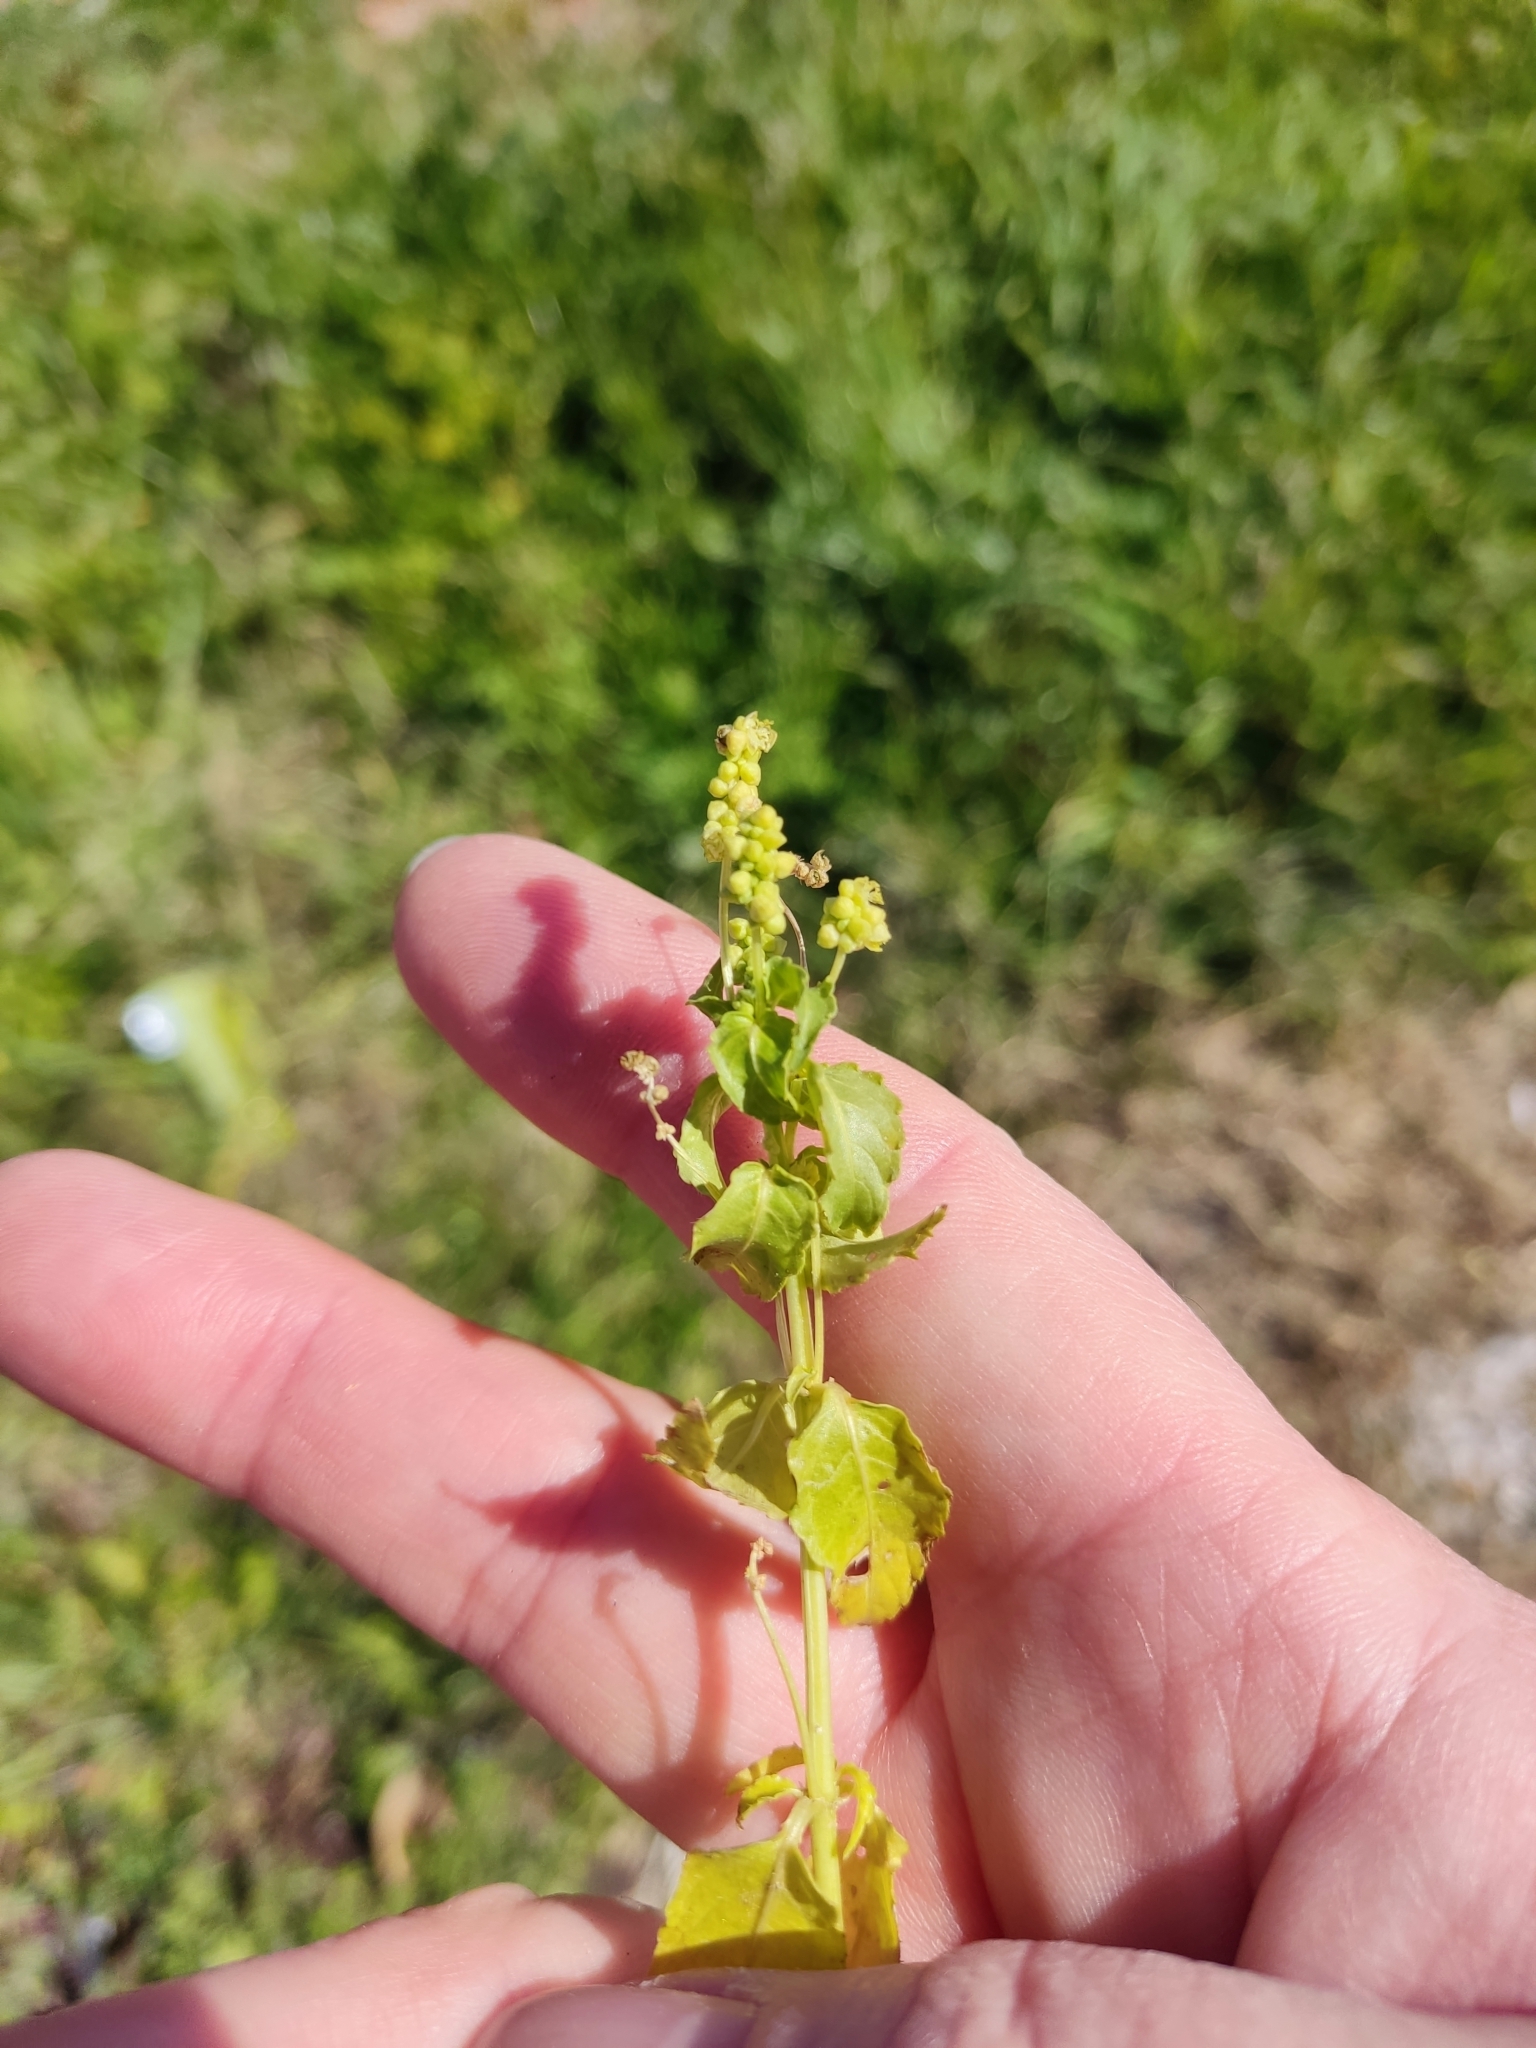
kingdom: Plantae
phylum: Tracheophyta
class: Magnoliopsida
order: Malpighiales
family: Euphorbiaceae
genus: Mercurialis
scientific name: Mercurialis annua
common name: Annual mercury
